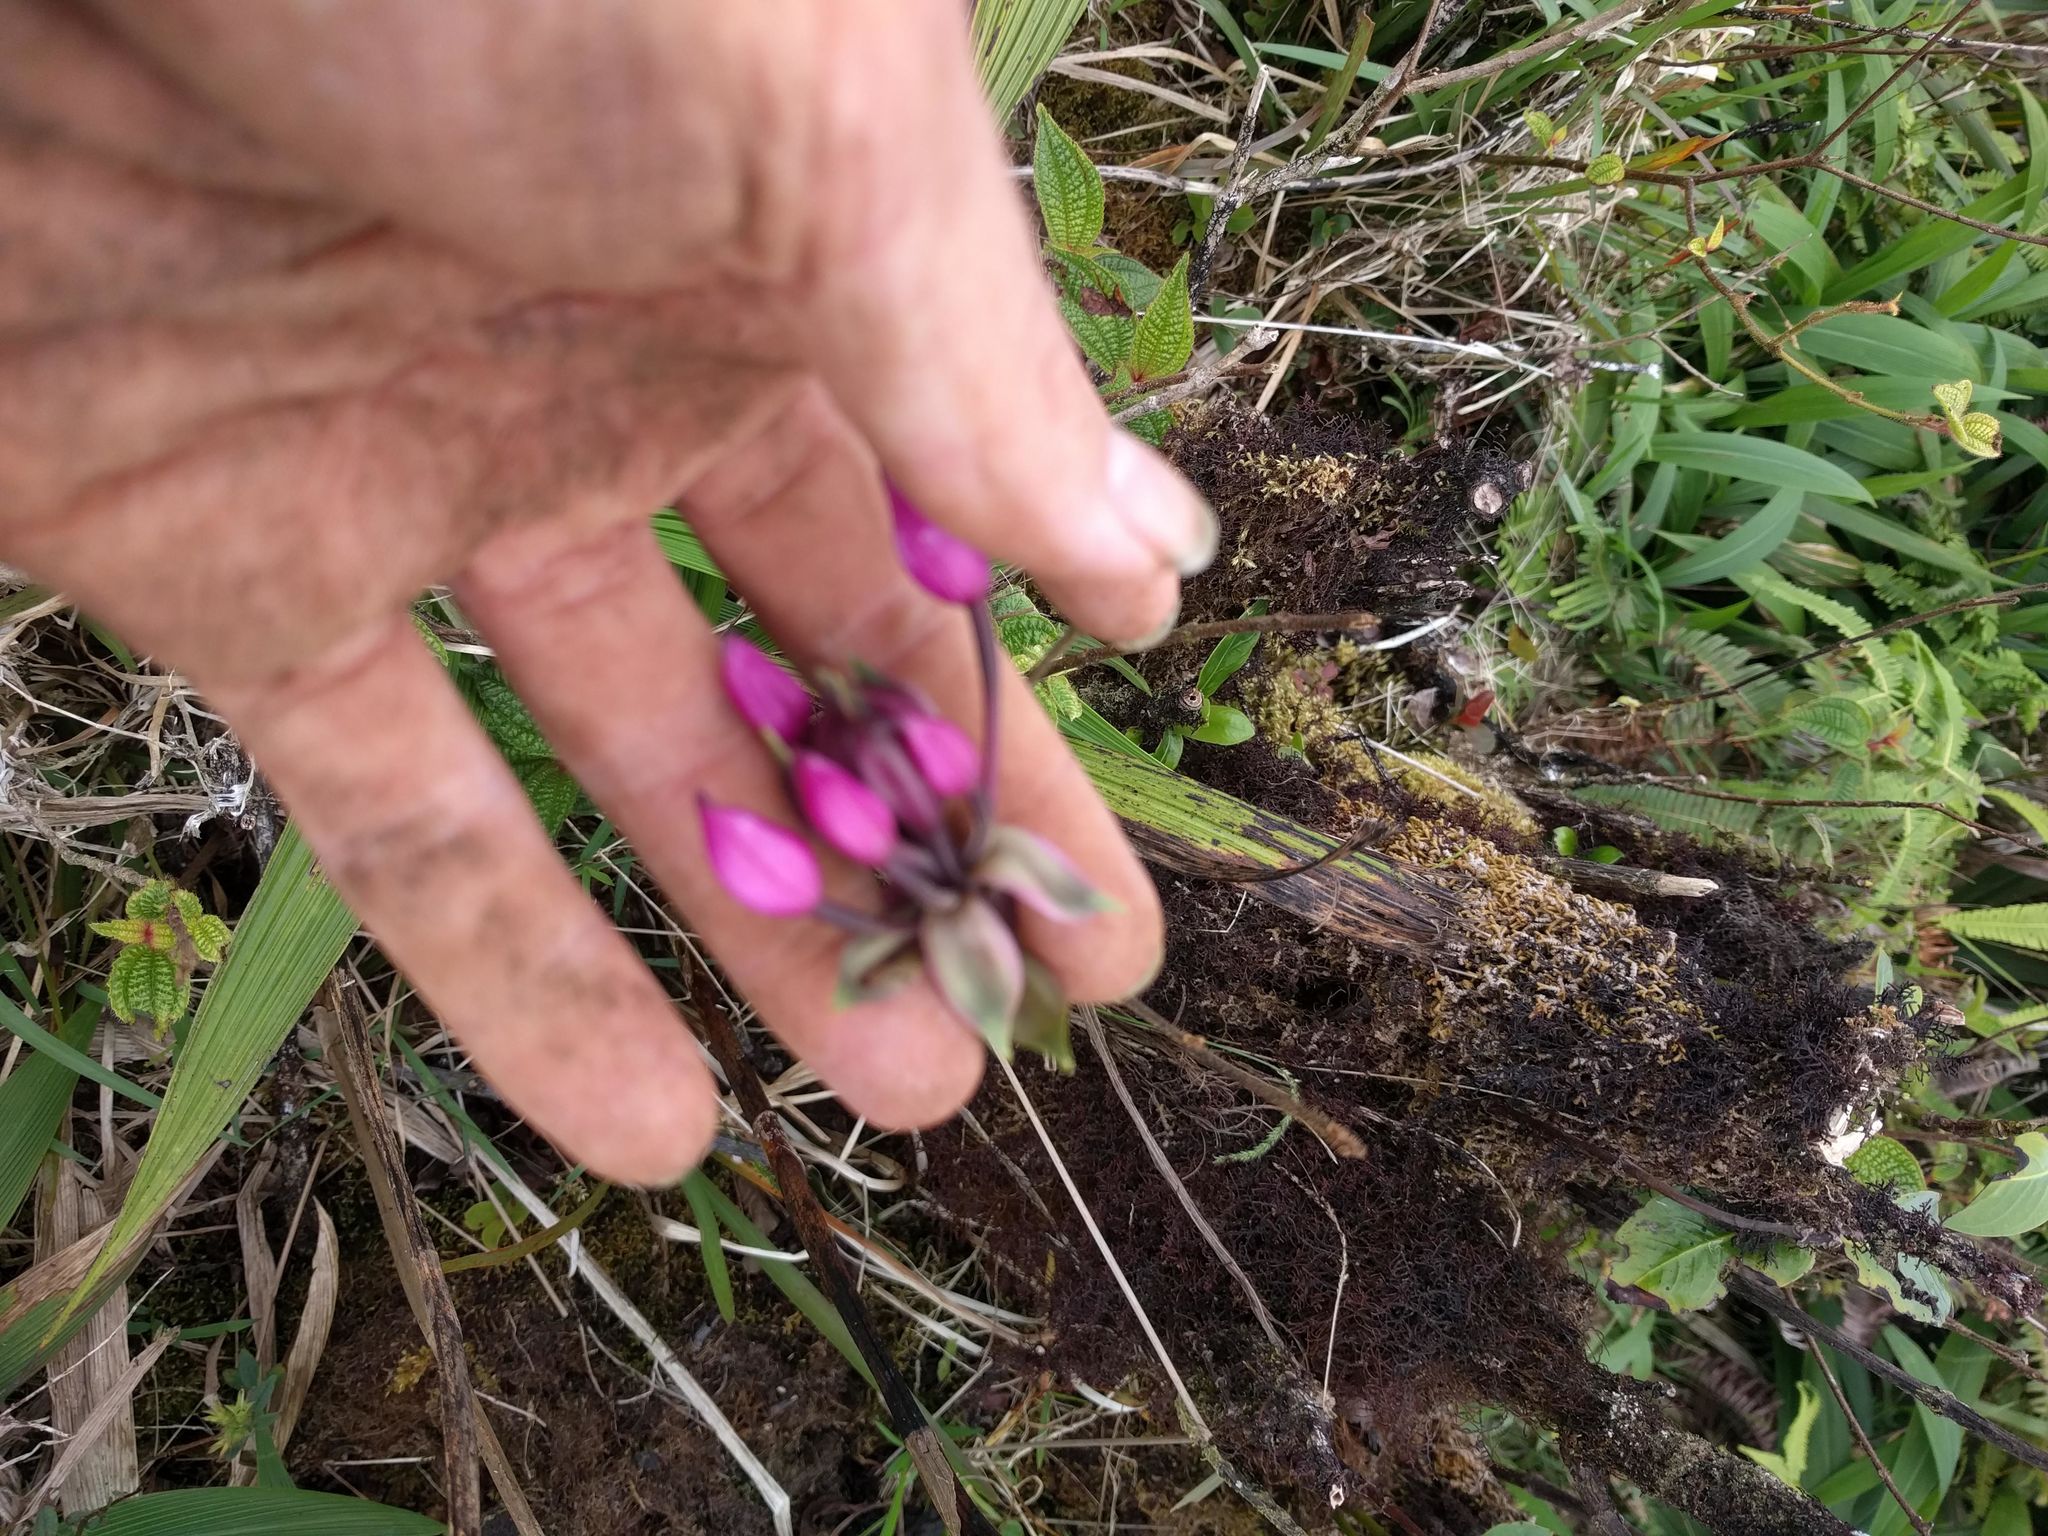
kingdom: Plantae
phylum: Tracheophyta
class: Liliopsida
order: Asparagales
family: Orchidaceae
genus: Spathoglottis
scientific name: Spathoglottis plicata
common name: Philippine ground orchid
